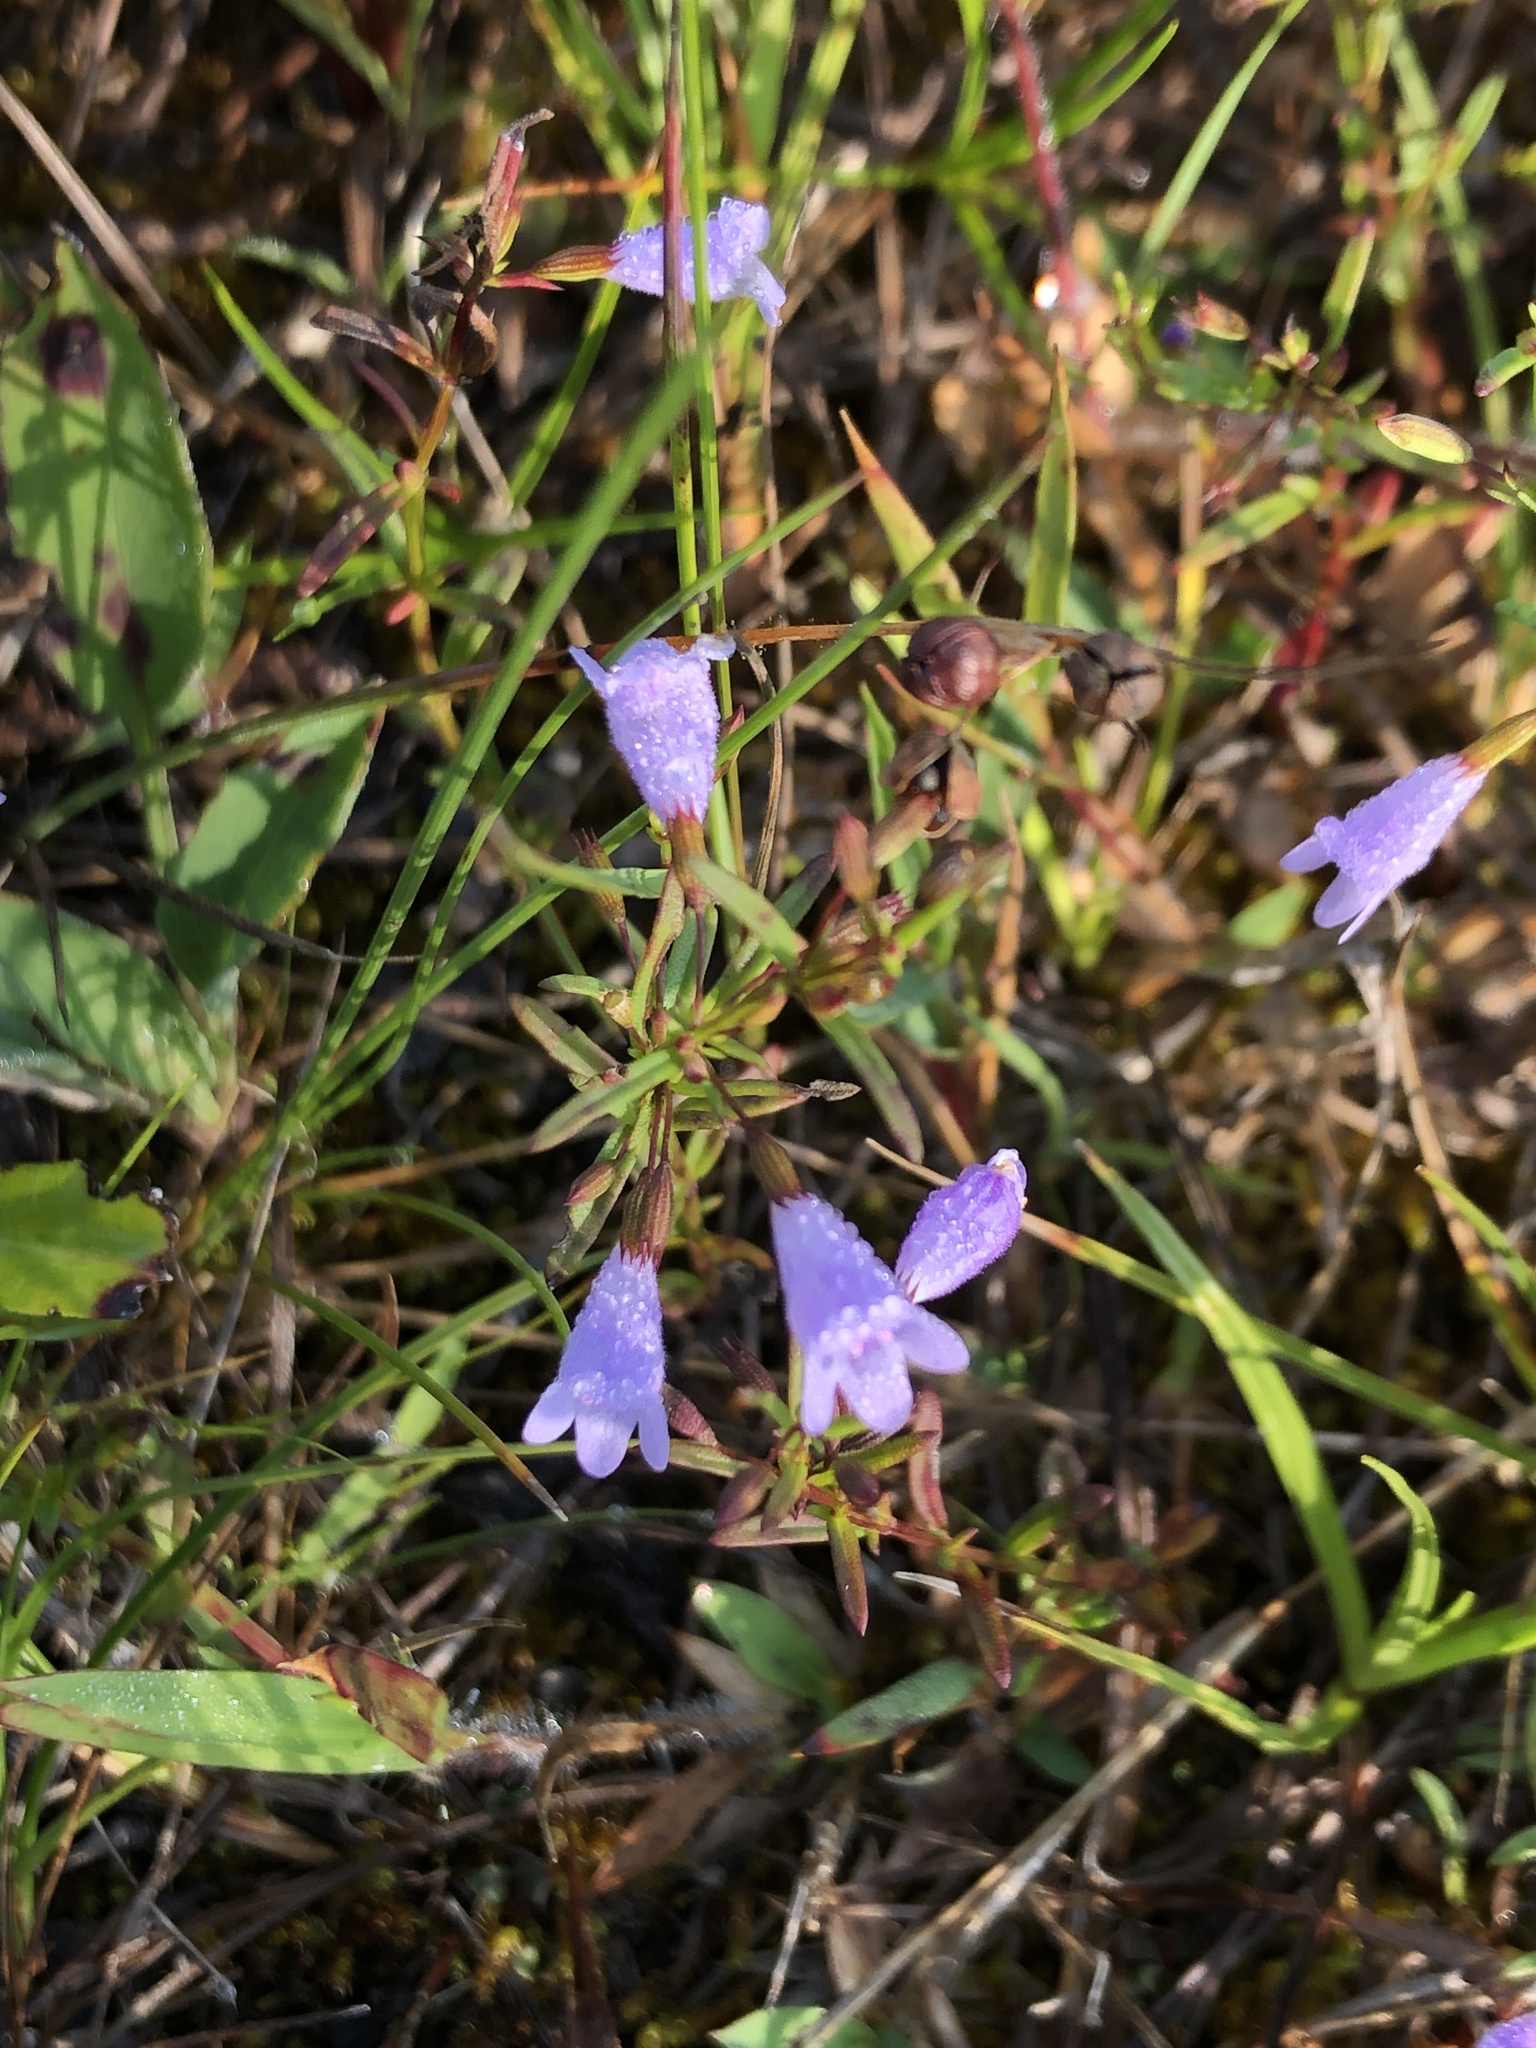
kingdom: Plantae
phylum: Tracheophyta
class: Magnoliopsida
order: Lamiales
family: Lamiaceae
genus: Clinopodium
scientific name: Clinopodium arkansanum
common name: Limestone calamint
